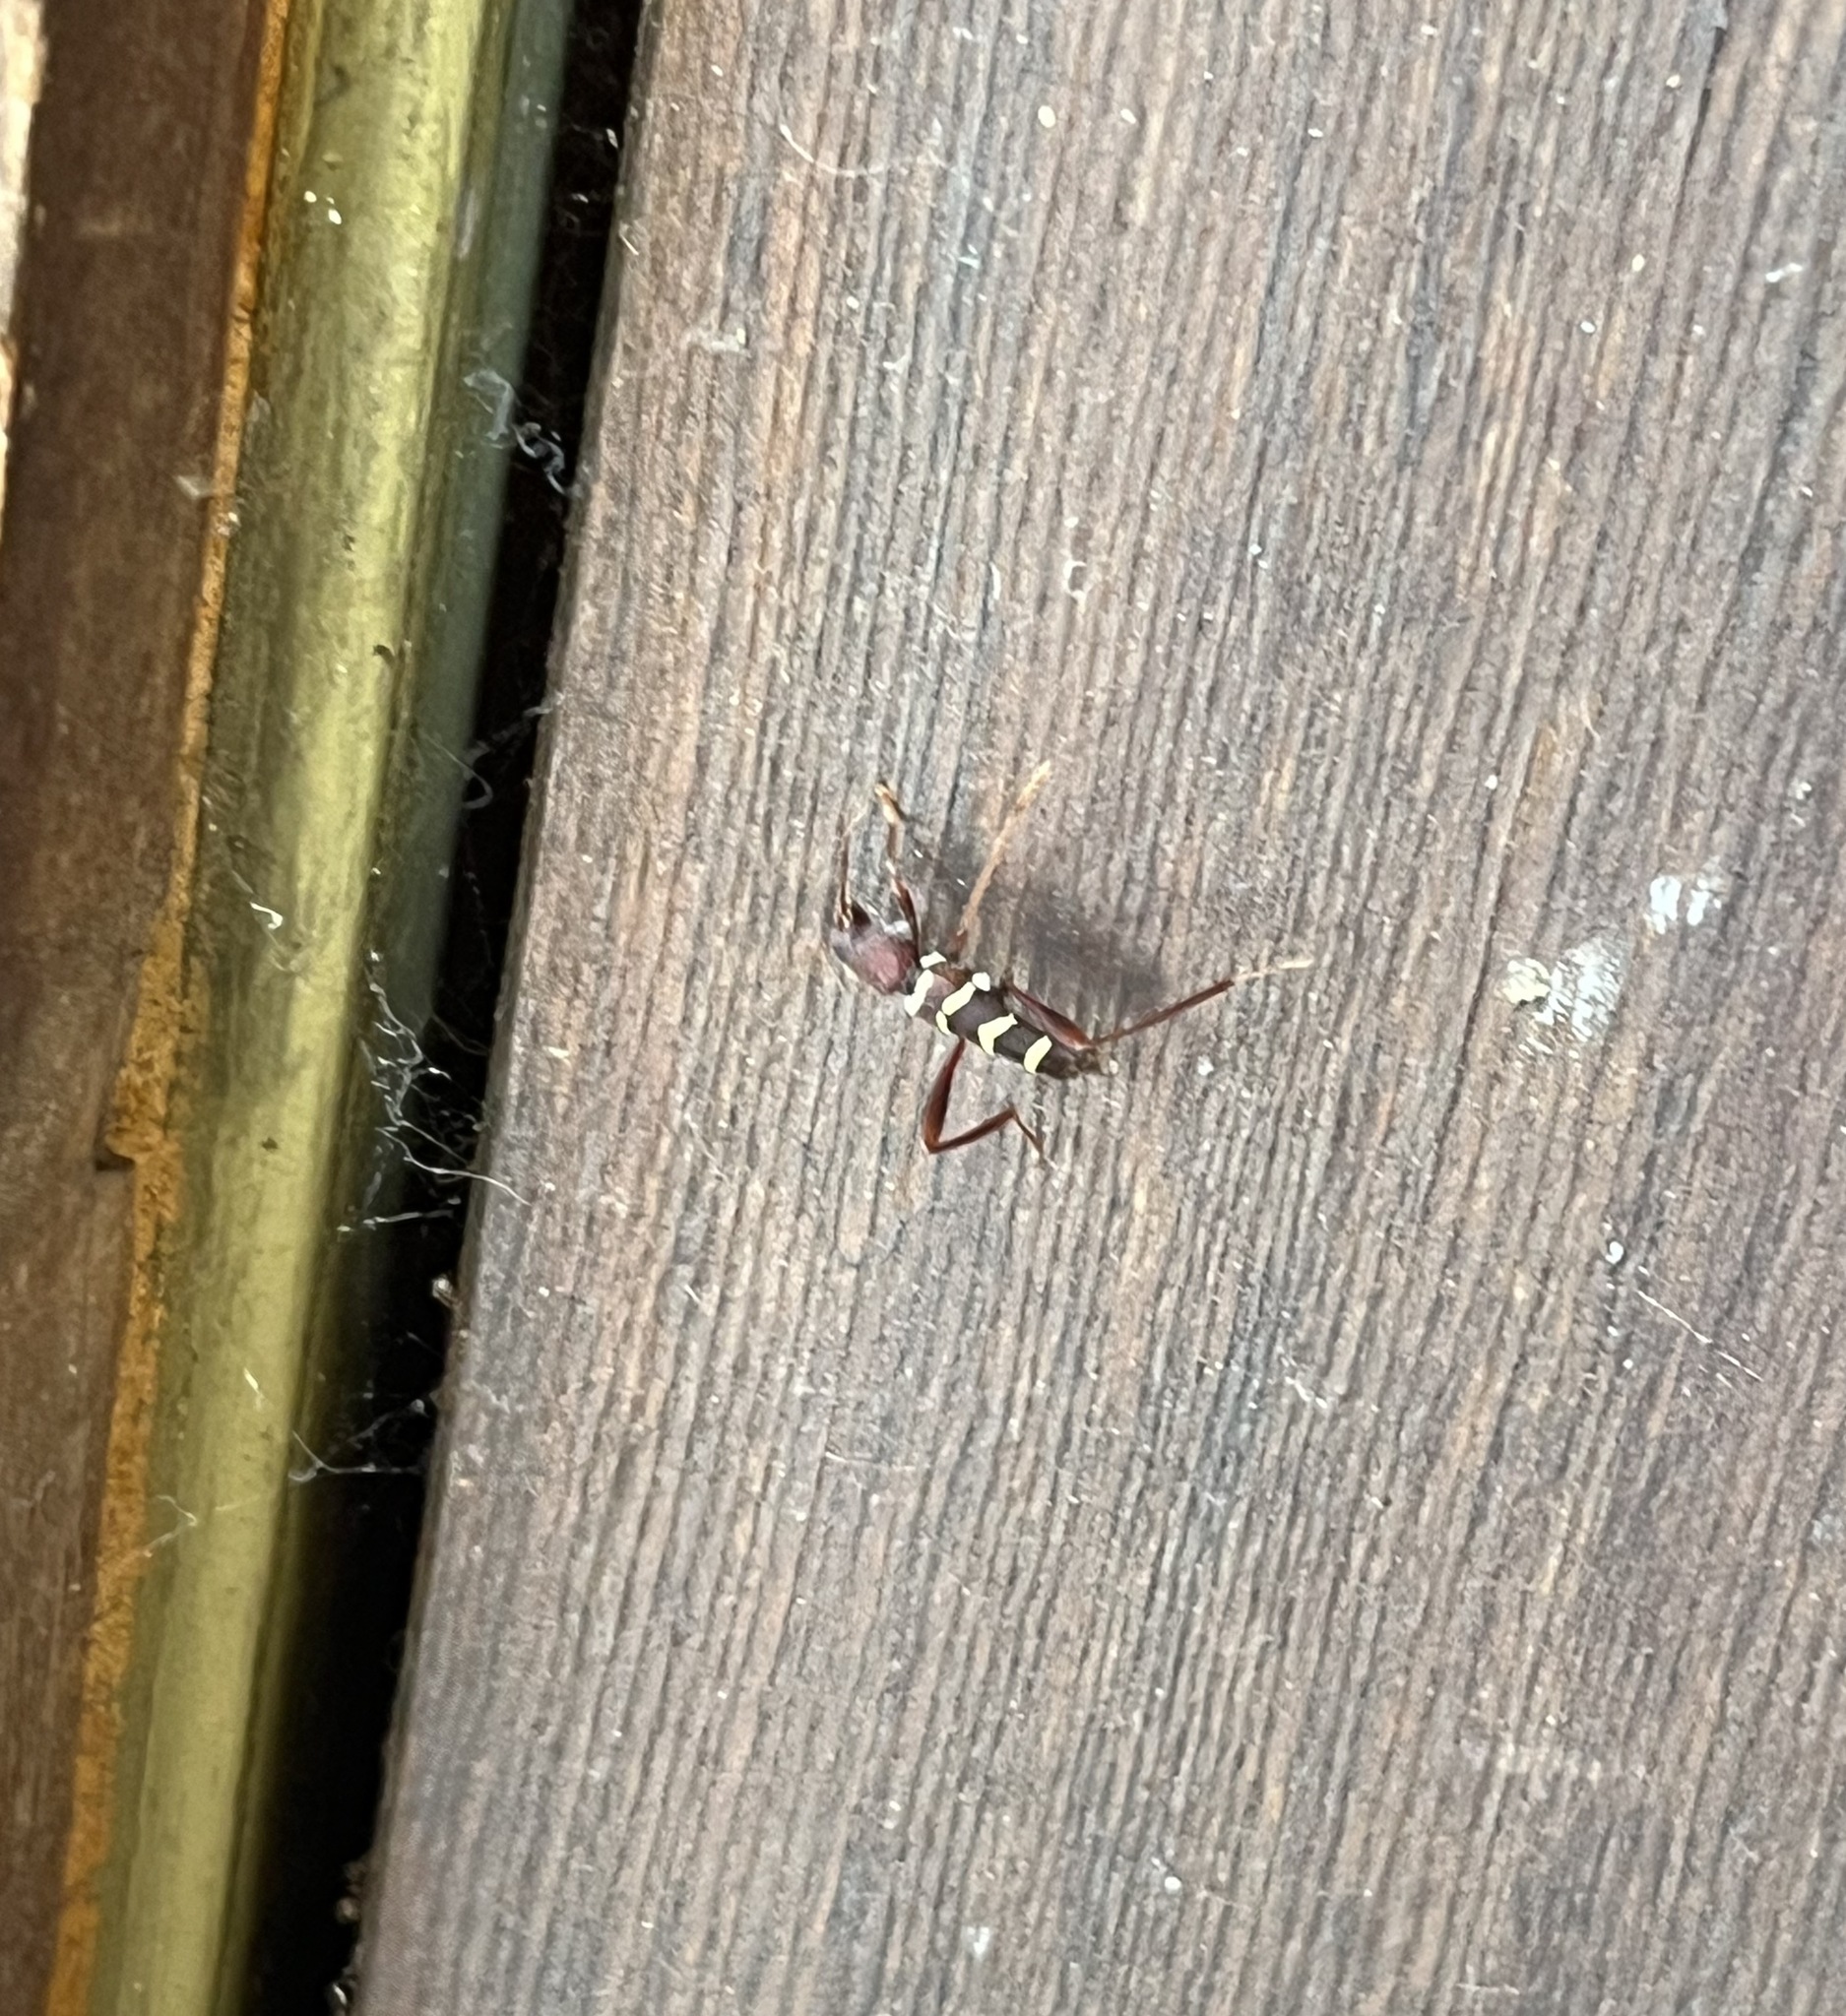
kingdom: Animalia
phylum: Arthropoda
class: Insecta
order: Coleoptera
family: Cerambycidae
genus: Neoclytus
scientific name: Neoclytus acuminatus
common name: Read-headed ash borer
